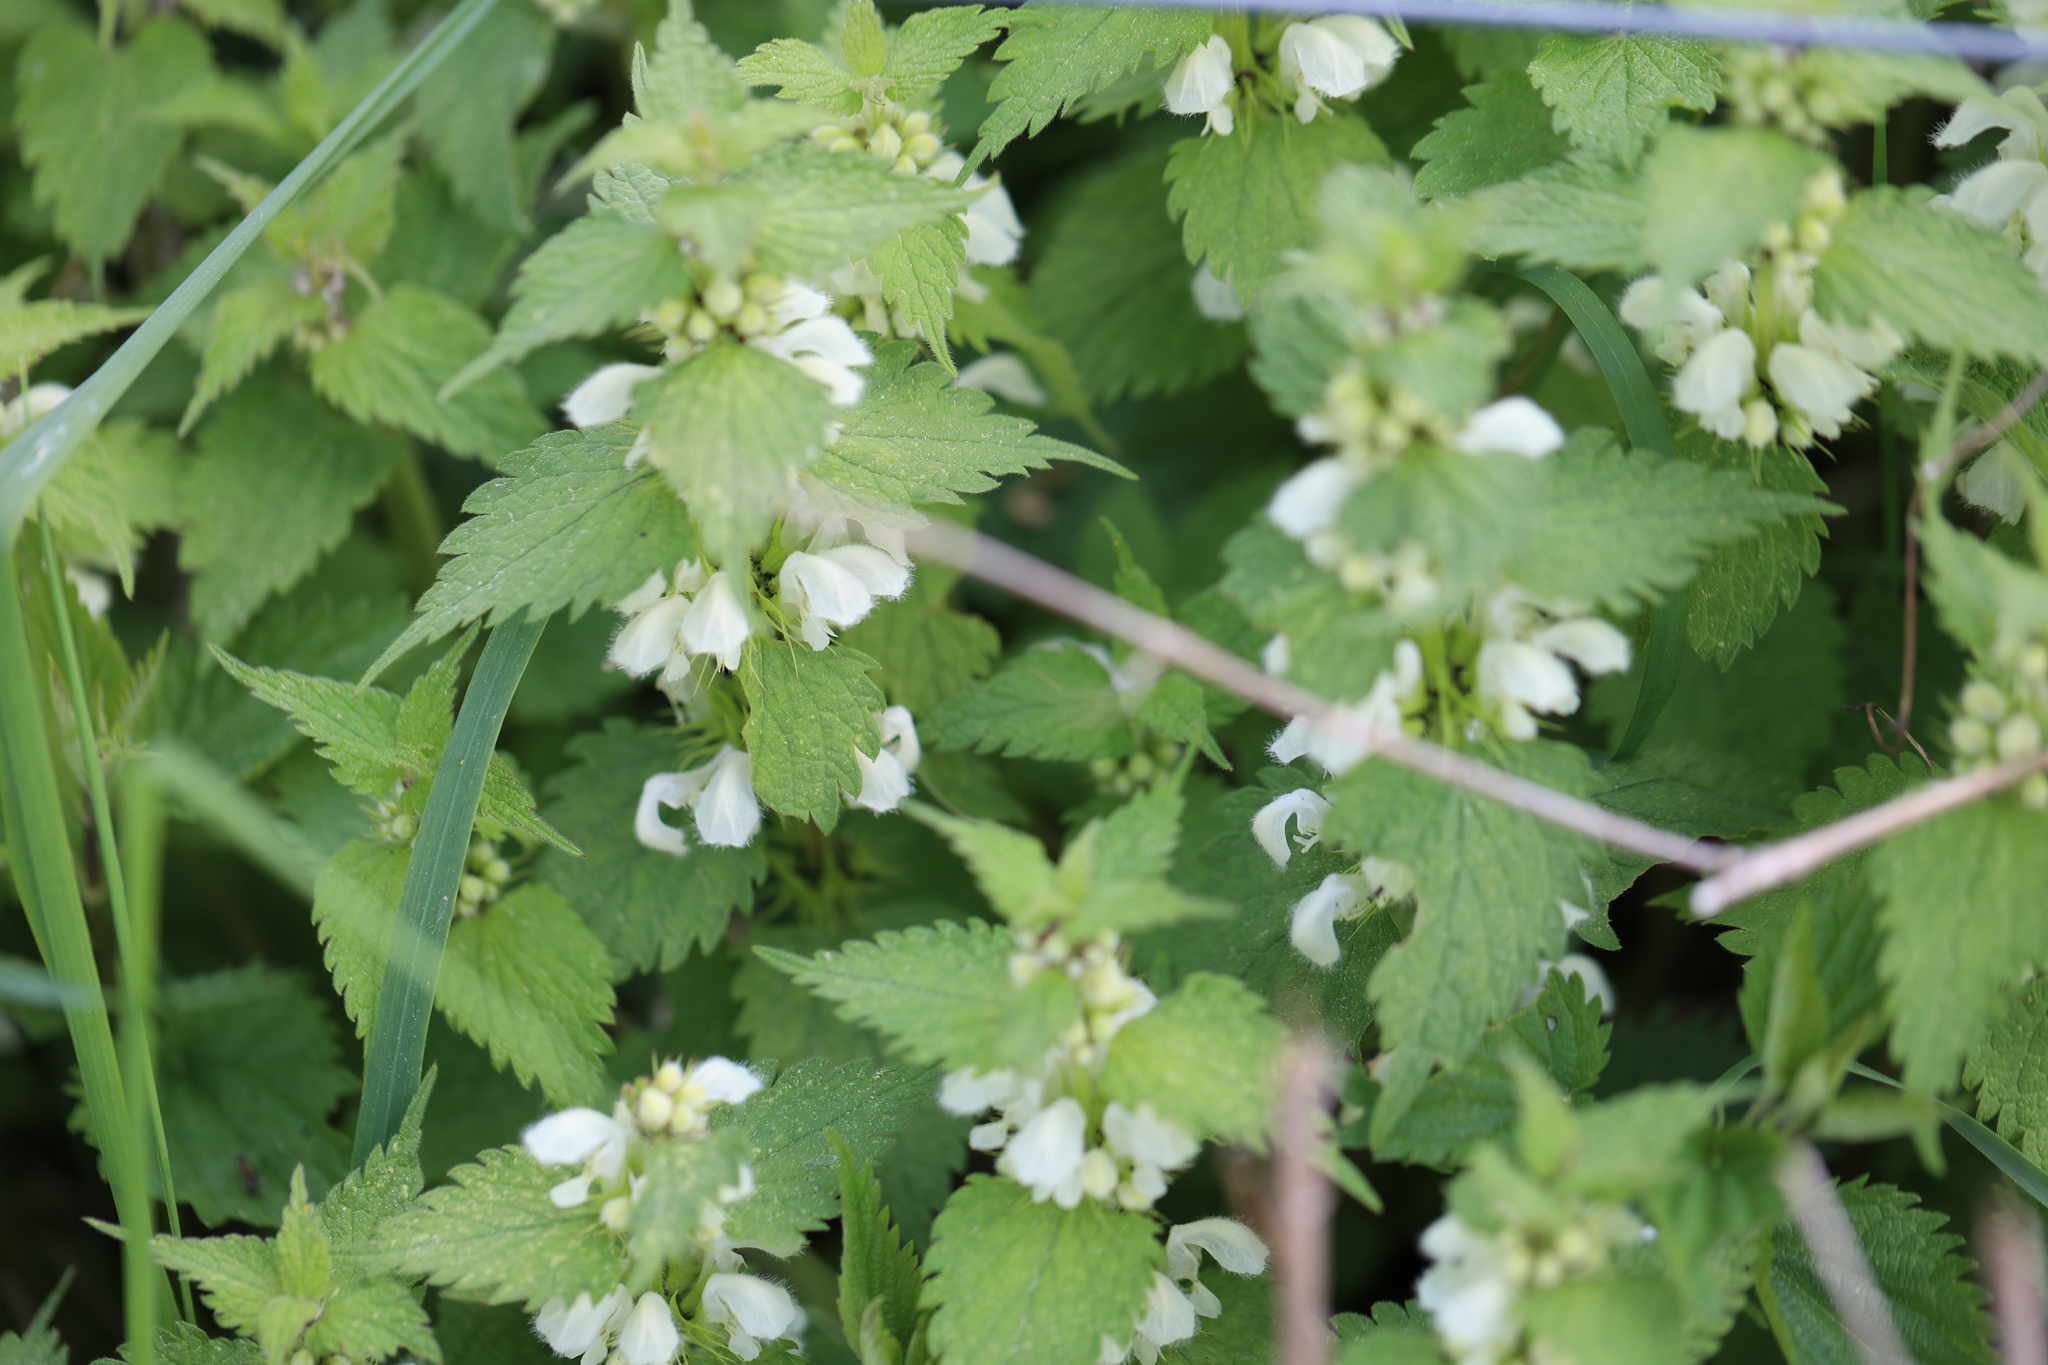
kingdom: Plantae
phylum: Tracheophyta
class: Magnoliopsida
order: Lamiales
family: Lamiaceae
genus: Lamium
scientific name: Lamium album
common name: White dead-nettle
